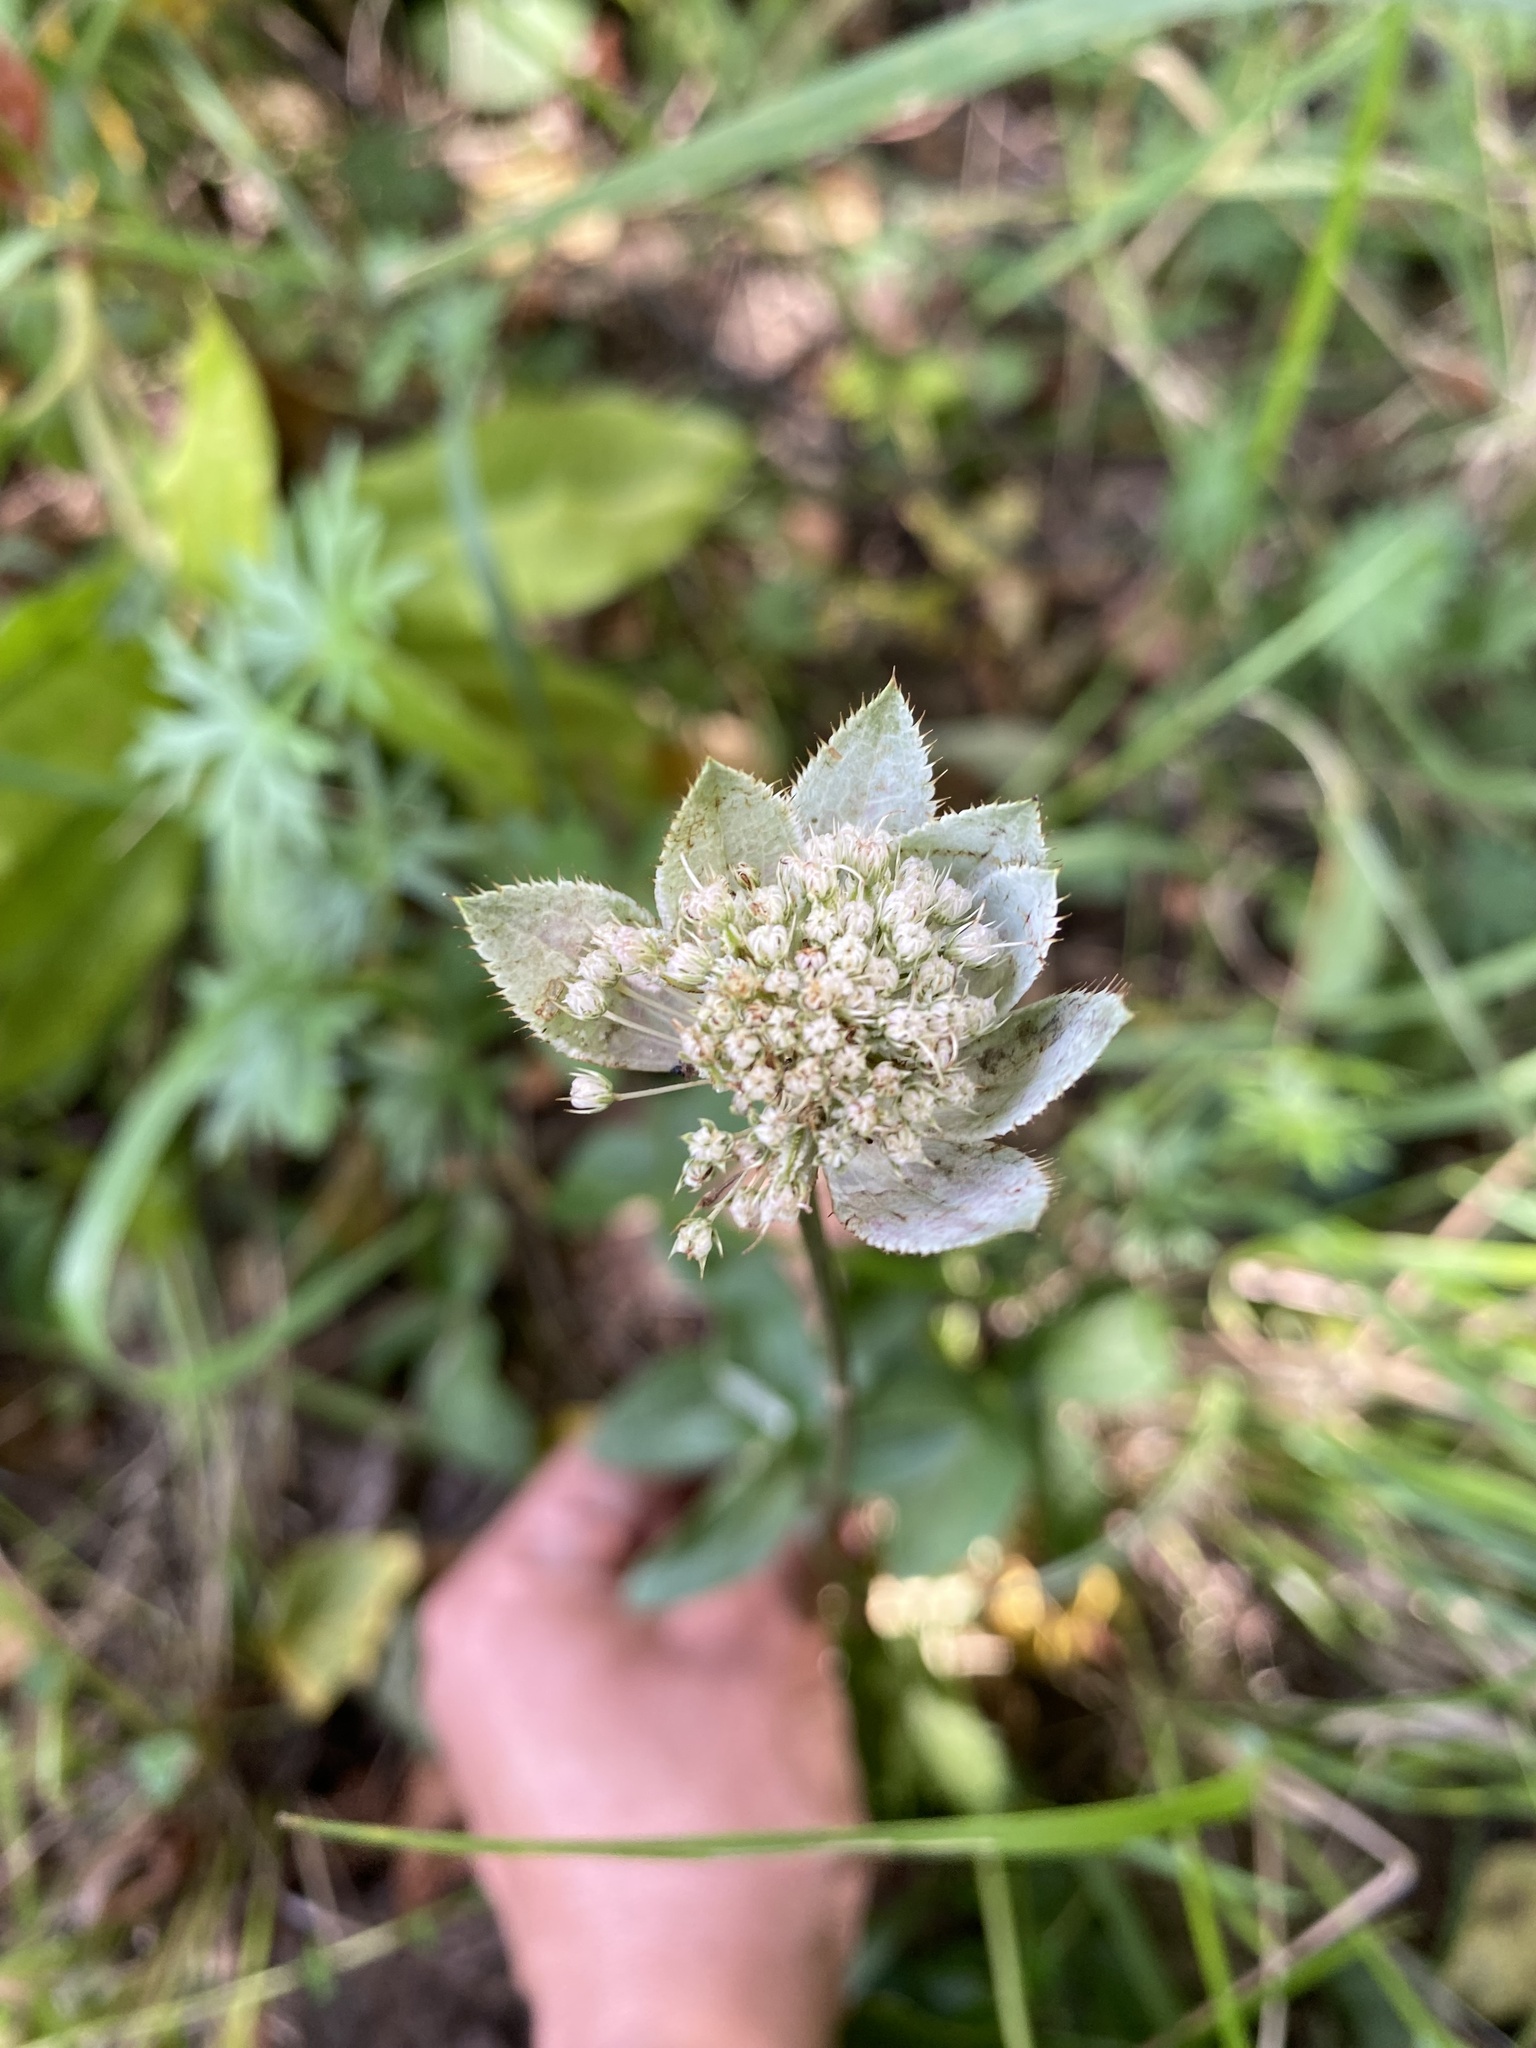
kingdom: Plantae
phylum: Tracheophyta
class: Magnoliopsida
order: Apiales
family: Apiaceae
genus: Astrantia
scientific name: Astrantia maxima
